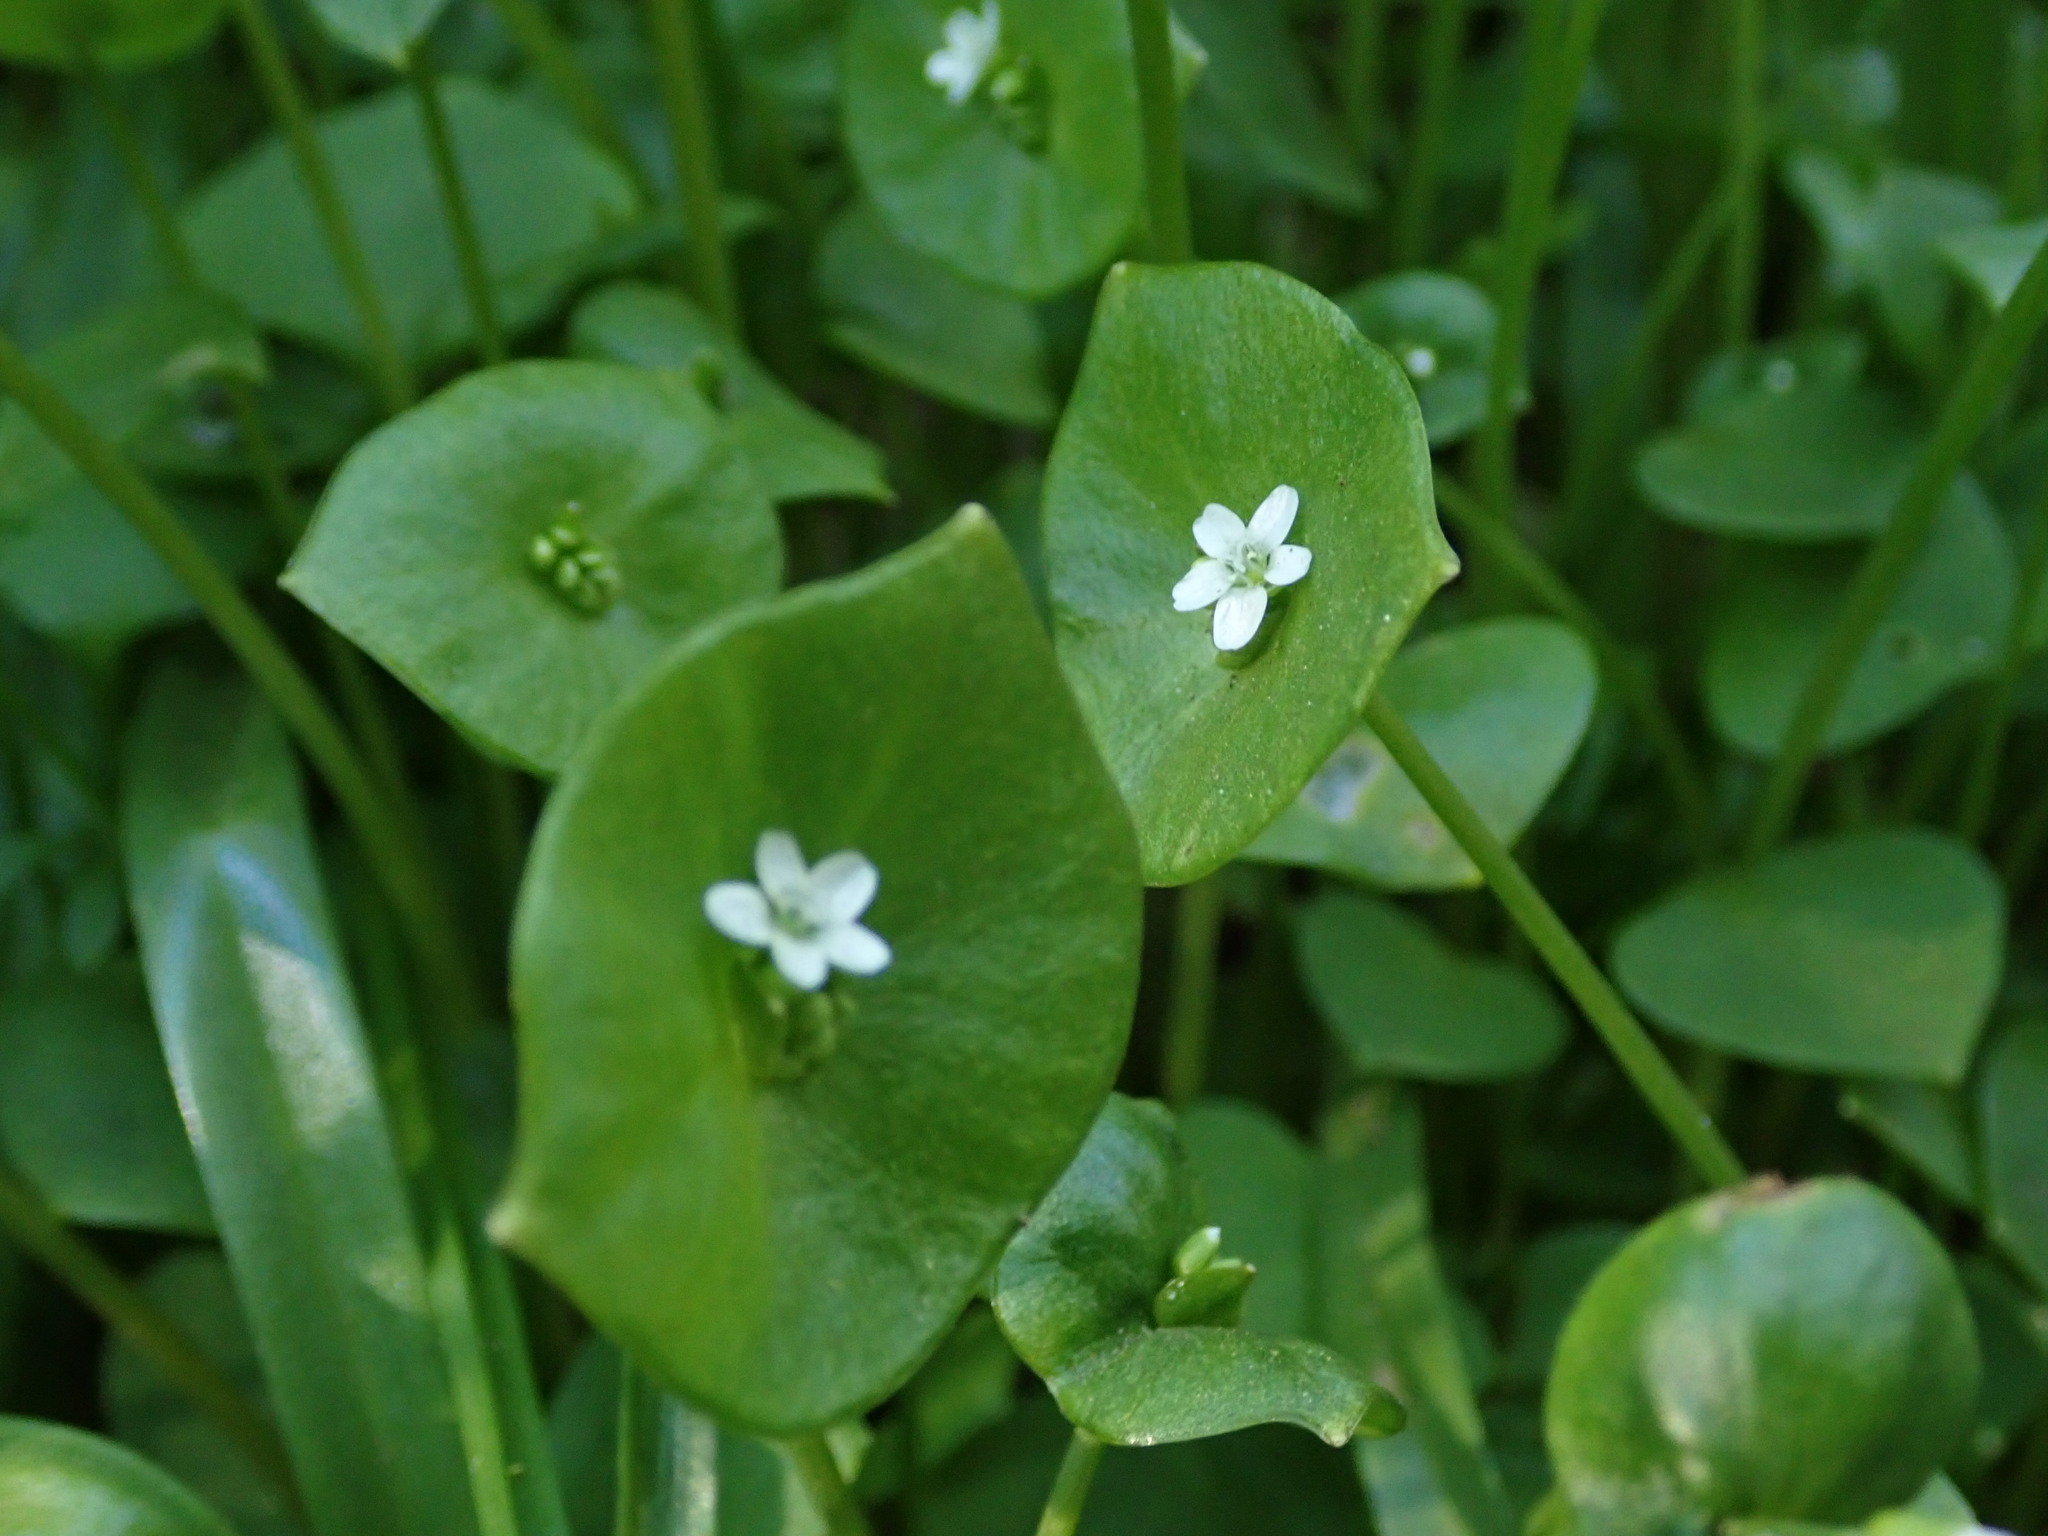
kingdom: Plantae
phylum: Tracheophyta
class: Magnoliopsida
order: Caryophyllales
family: Montiaceae
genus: Claytonia
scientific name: Claytonia perfoliata
